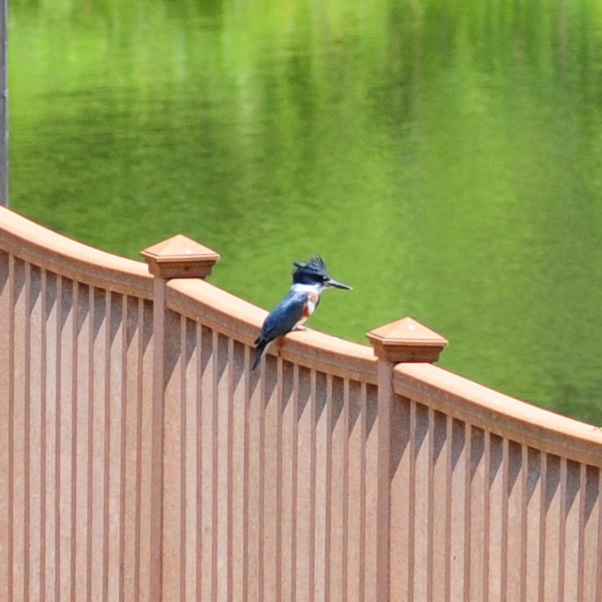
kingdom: Animalia
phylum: Chordata
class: Aves
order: Coraciiformes
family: Alcedinidae
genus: Megaceryle
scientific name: Megaceryle alcyon
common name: Belted kingfisher
